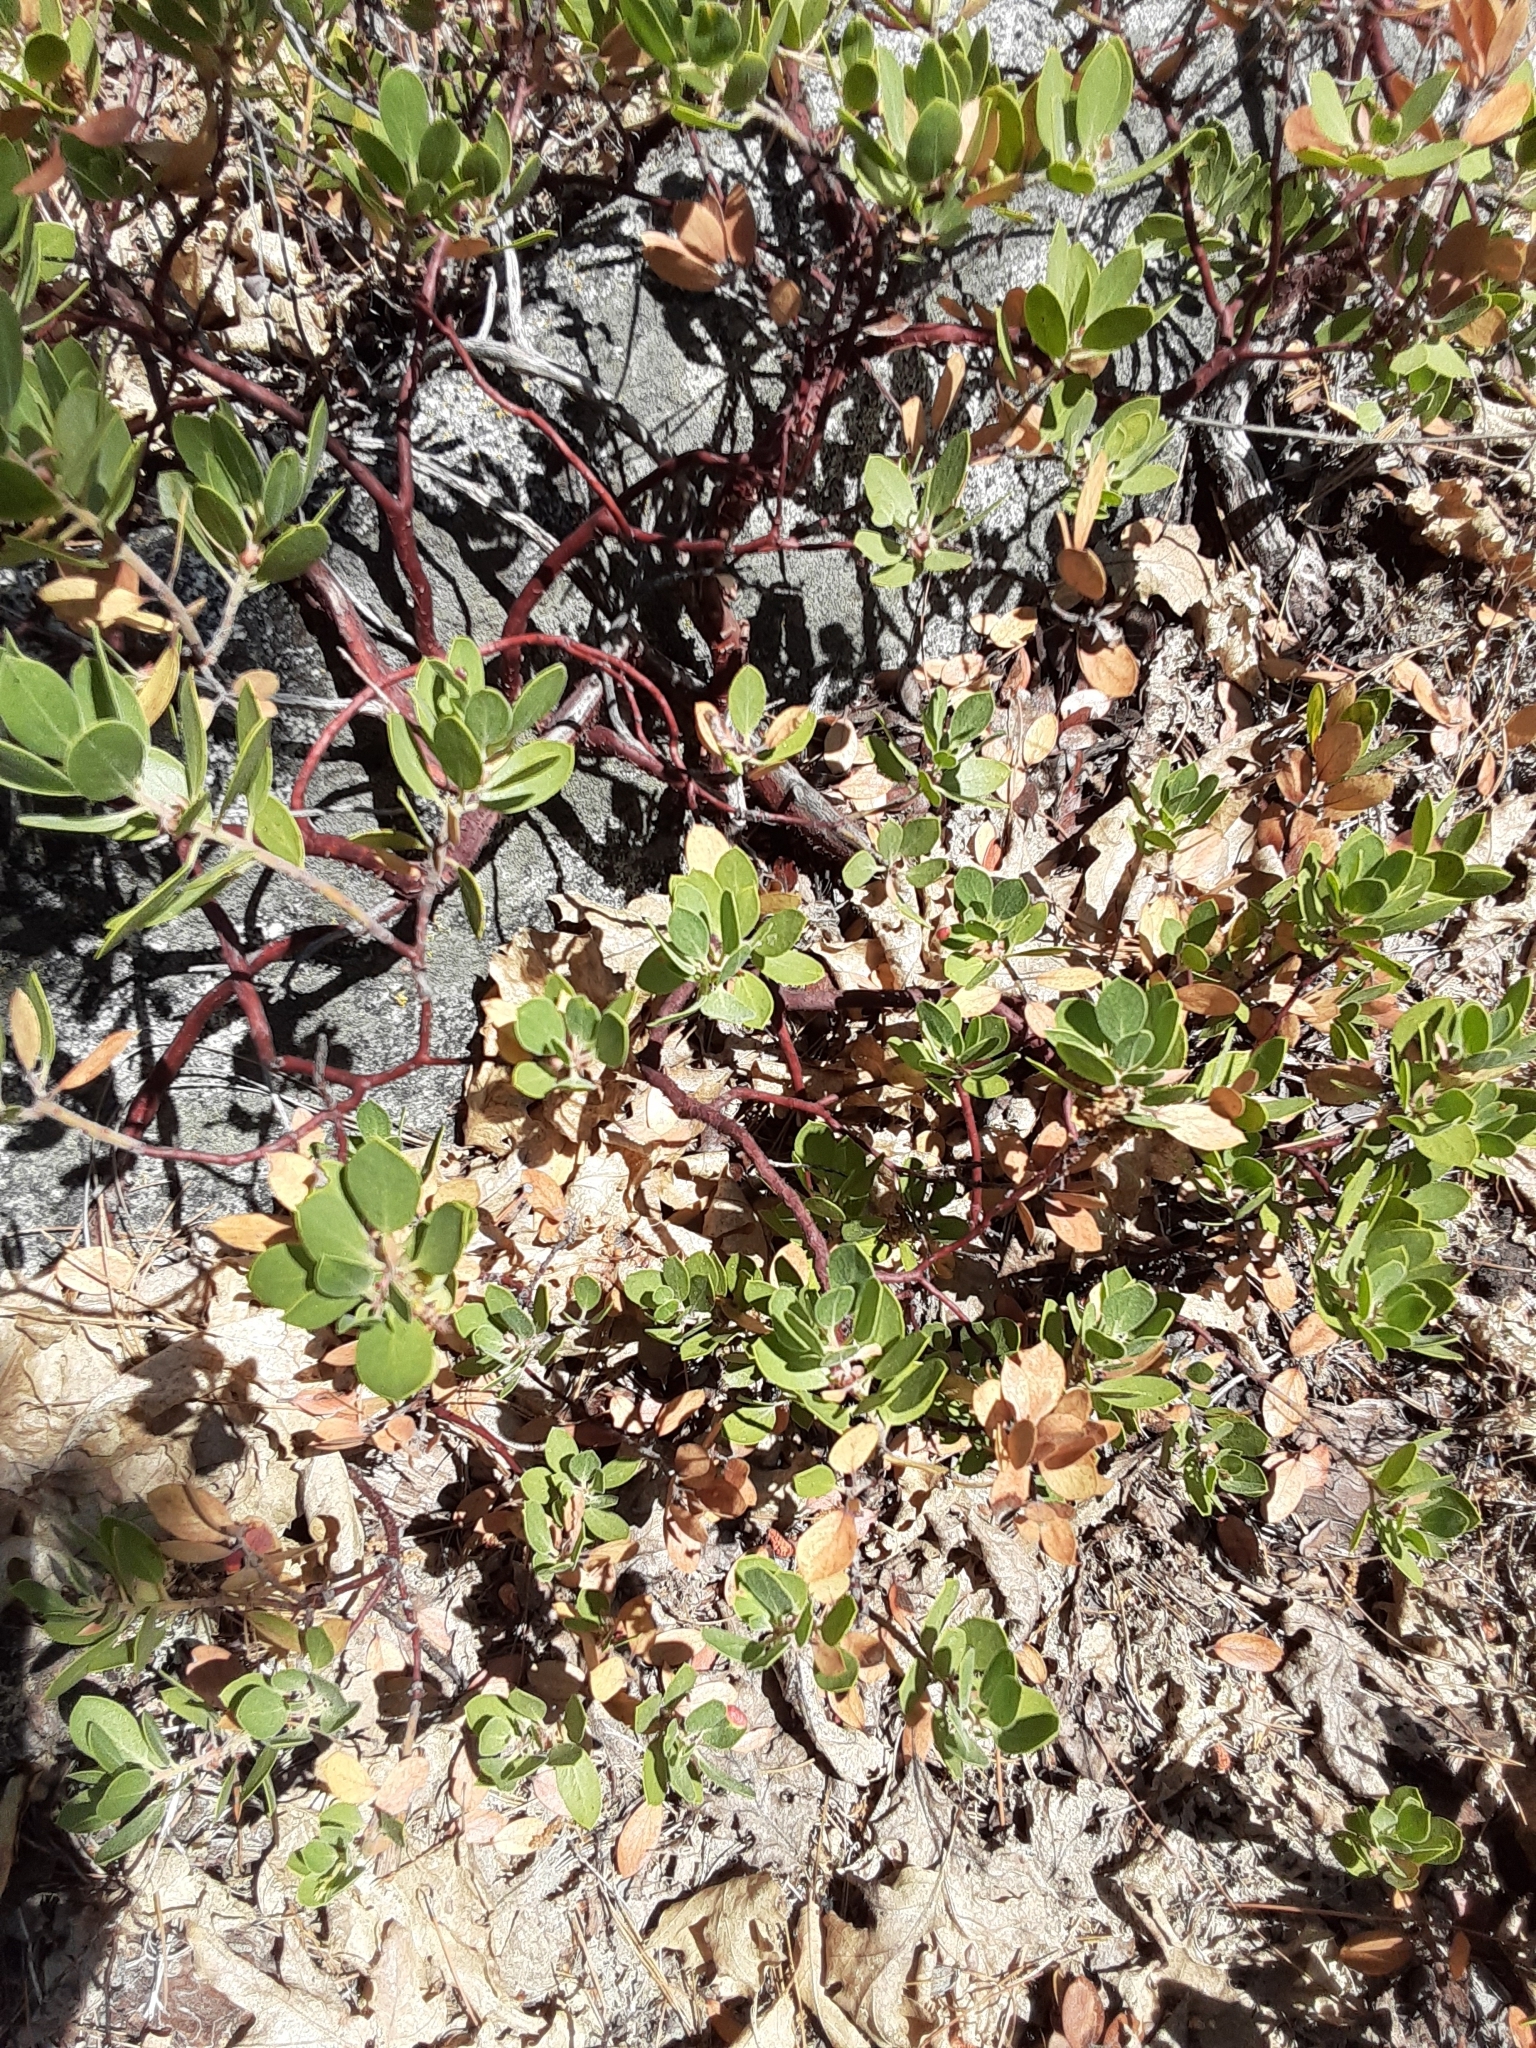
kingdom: Plantae
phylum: Tracheophyta
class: Magnoliopsida
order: Ericales
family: Ericaceae
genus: Arctostaphylos
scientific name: Arctostaphylos nevadensis
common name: Pinemat manzanita
